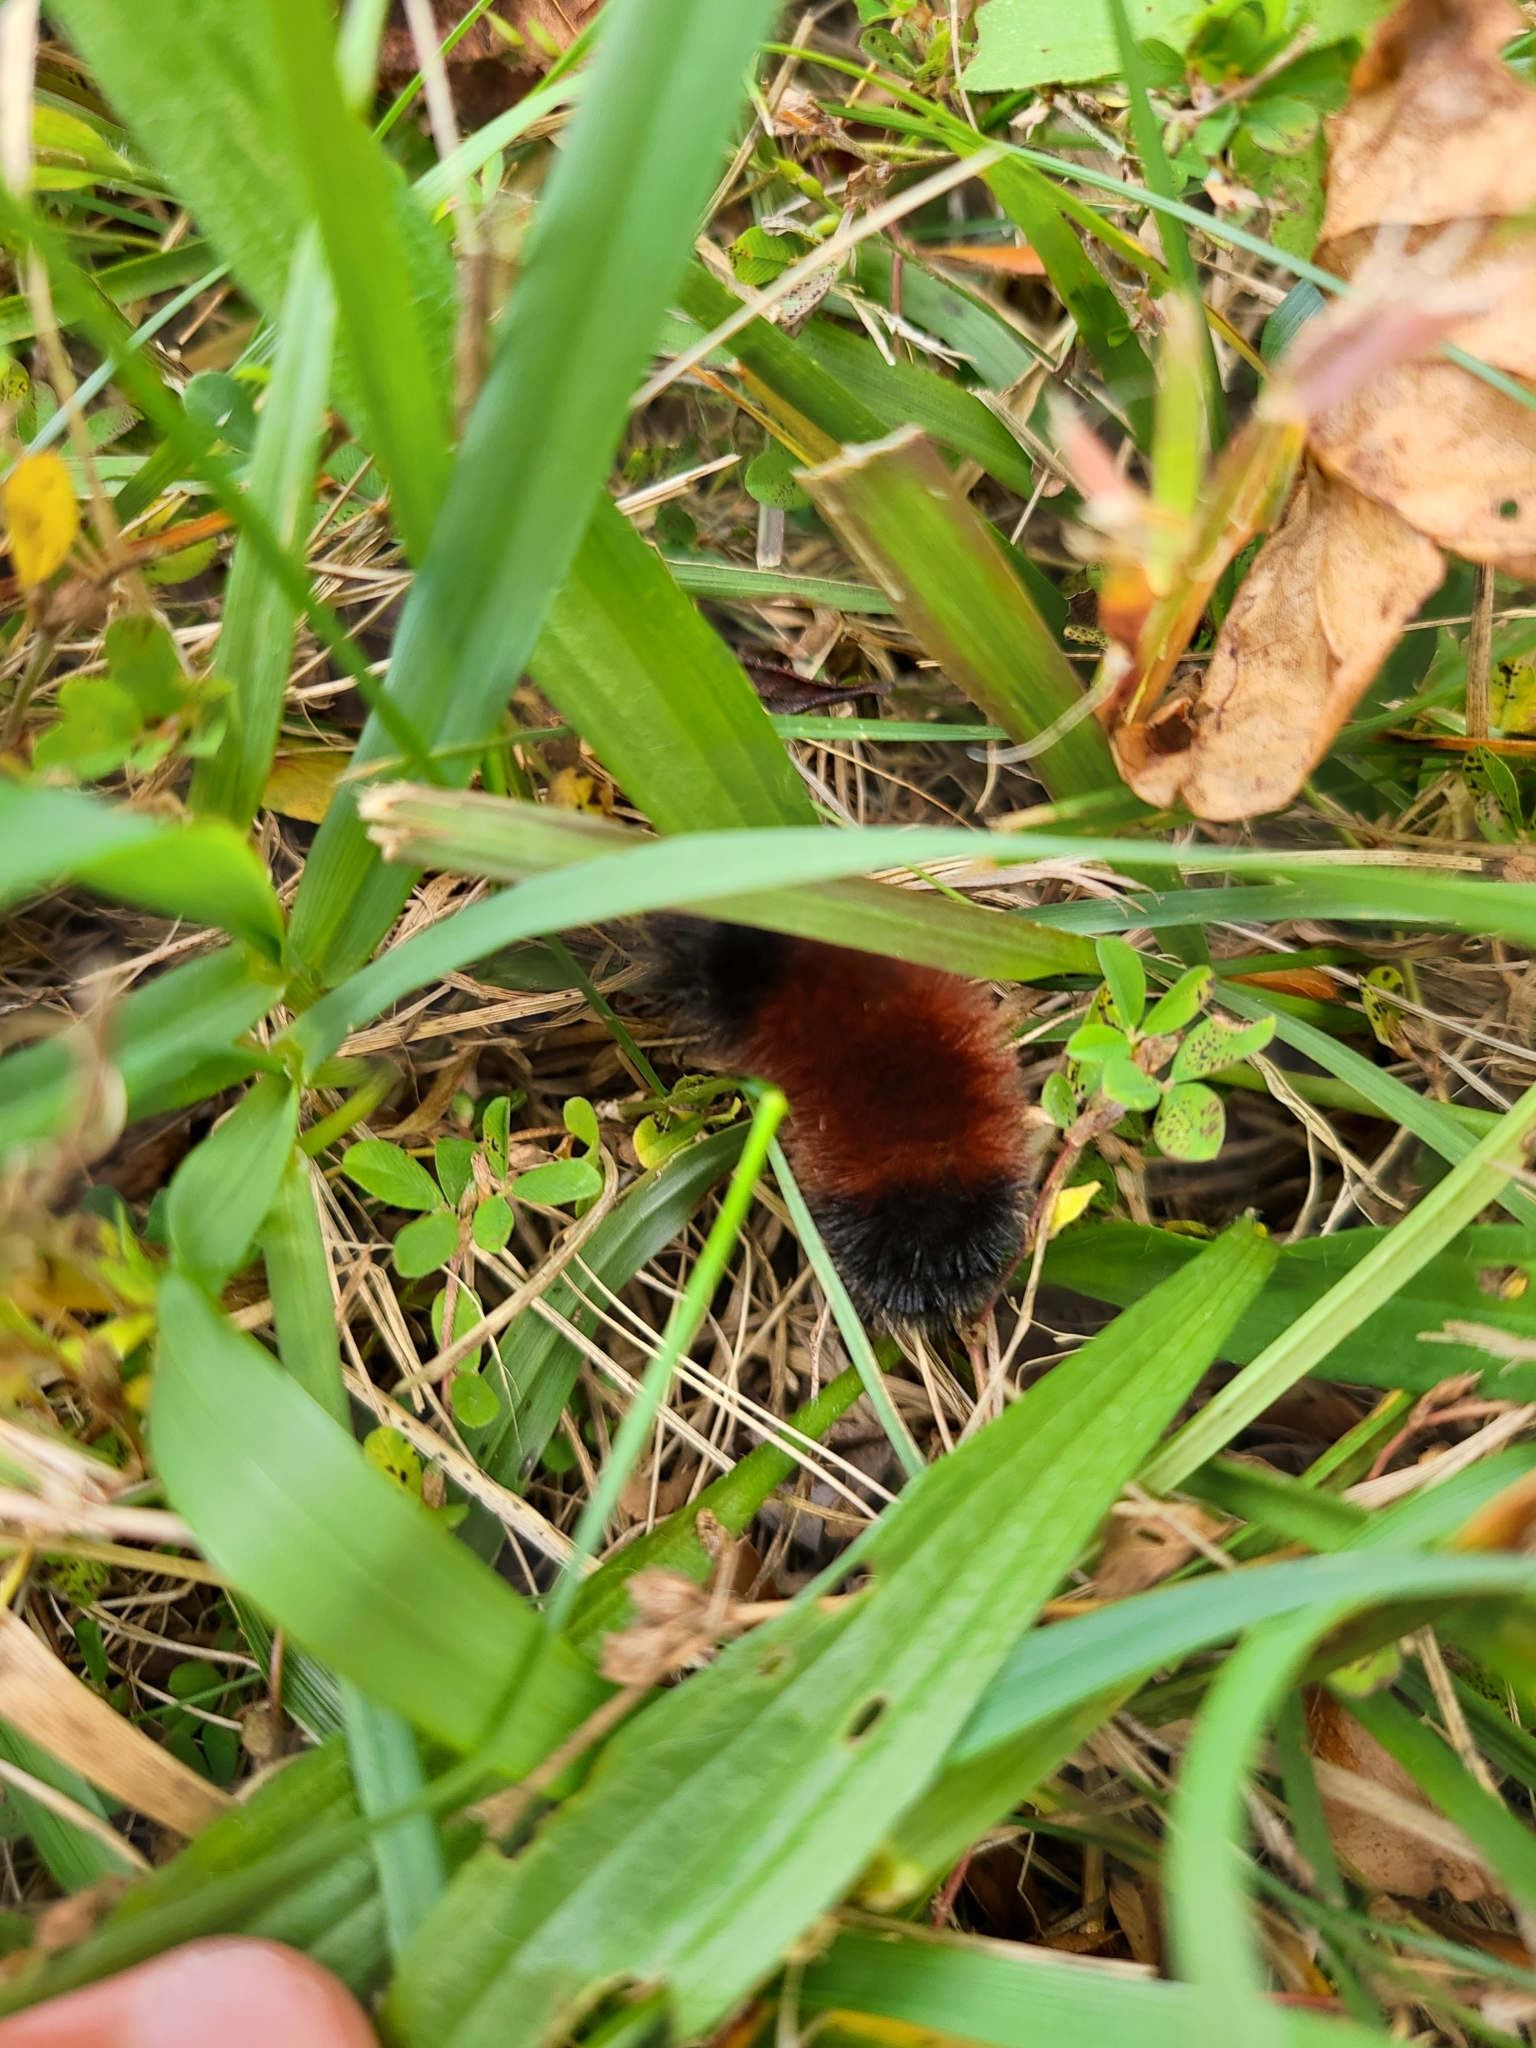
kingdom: Animalia
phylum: Arthropoda
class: Insecta
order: Lepidoptera
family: Erebidae
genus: Pyrrharctia
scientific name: Pyrrharctia isabella
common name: Isabella tiger moth
